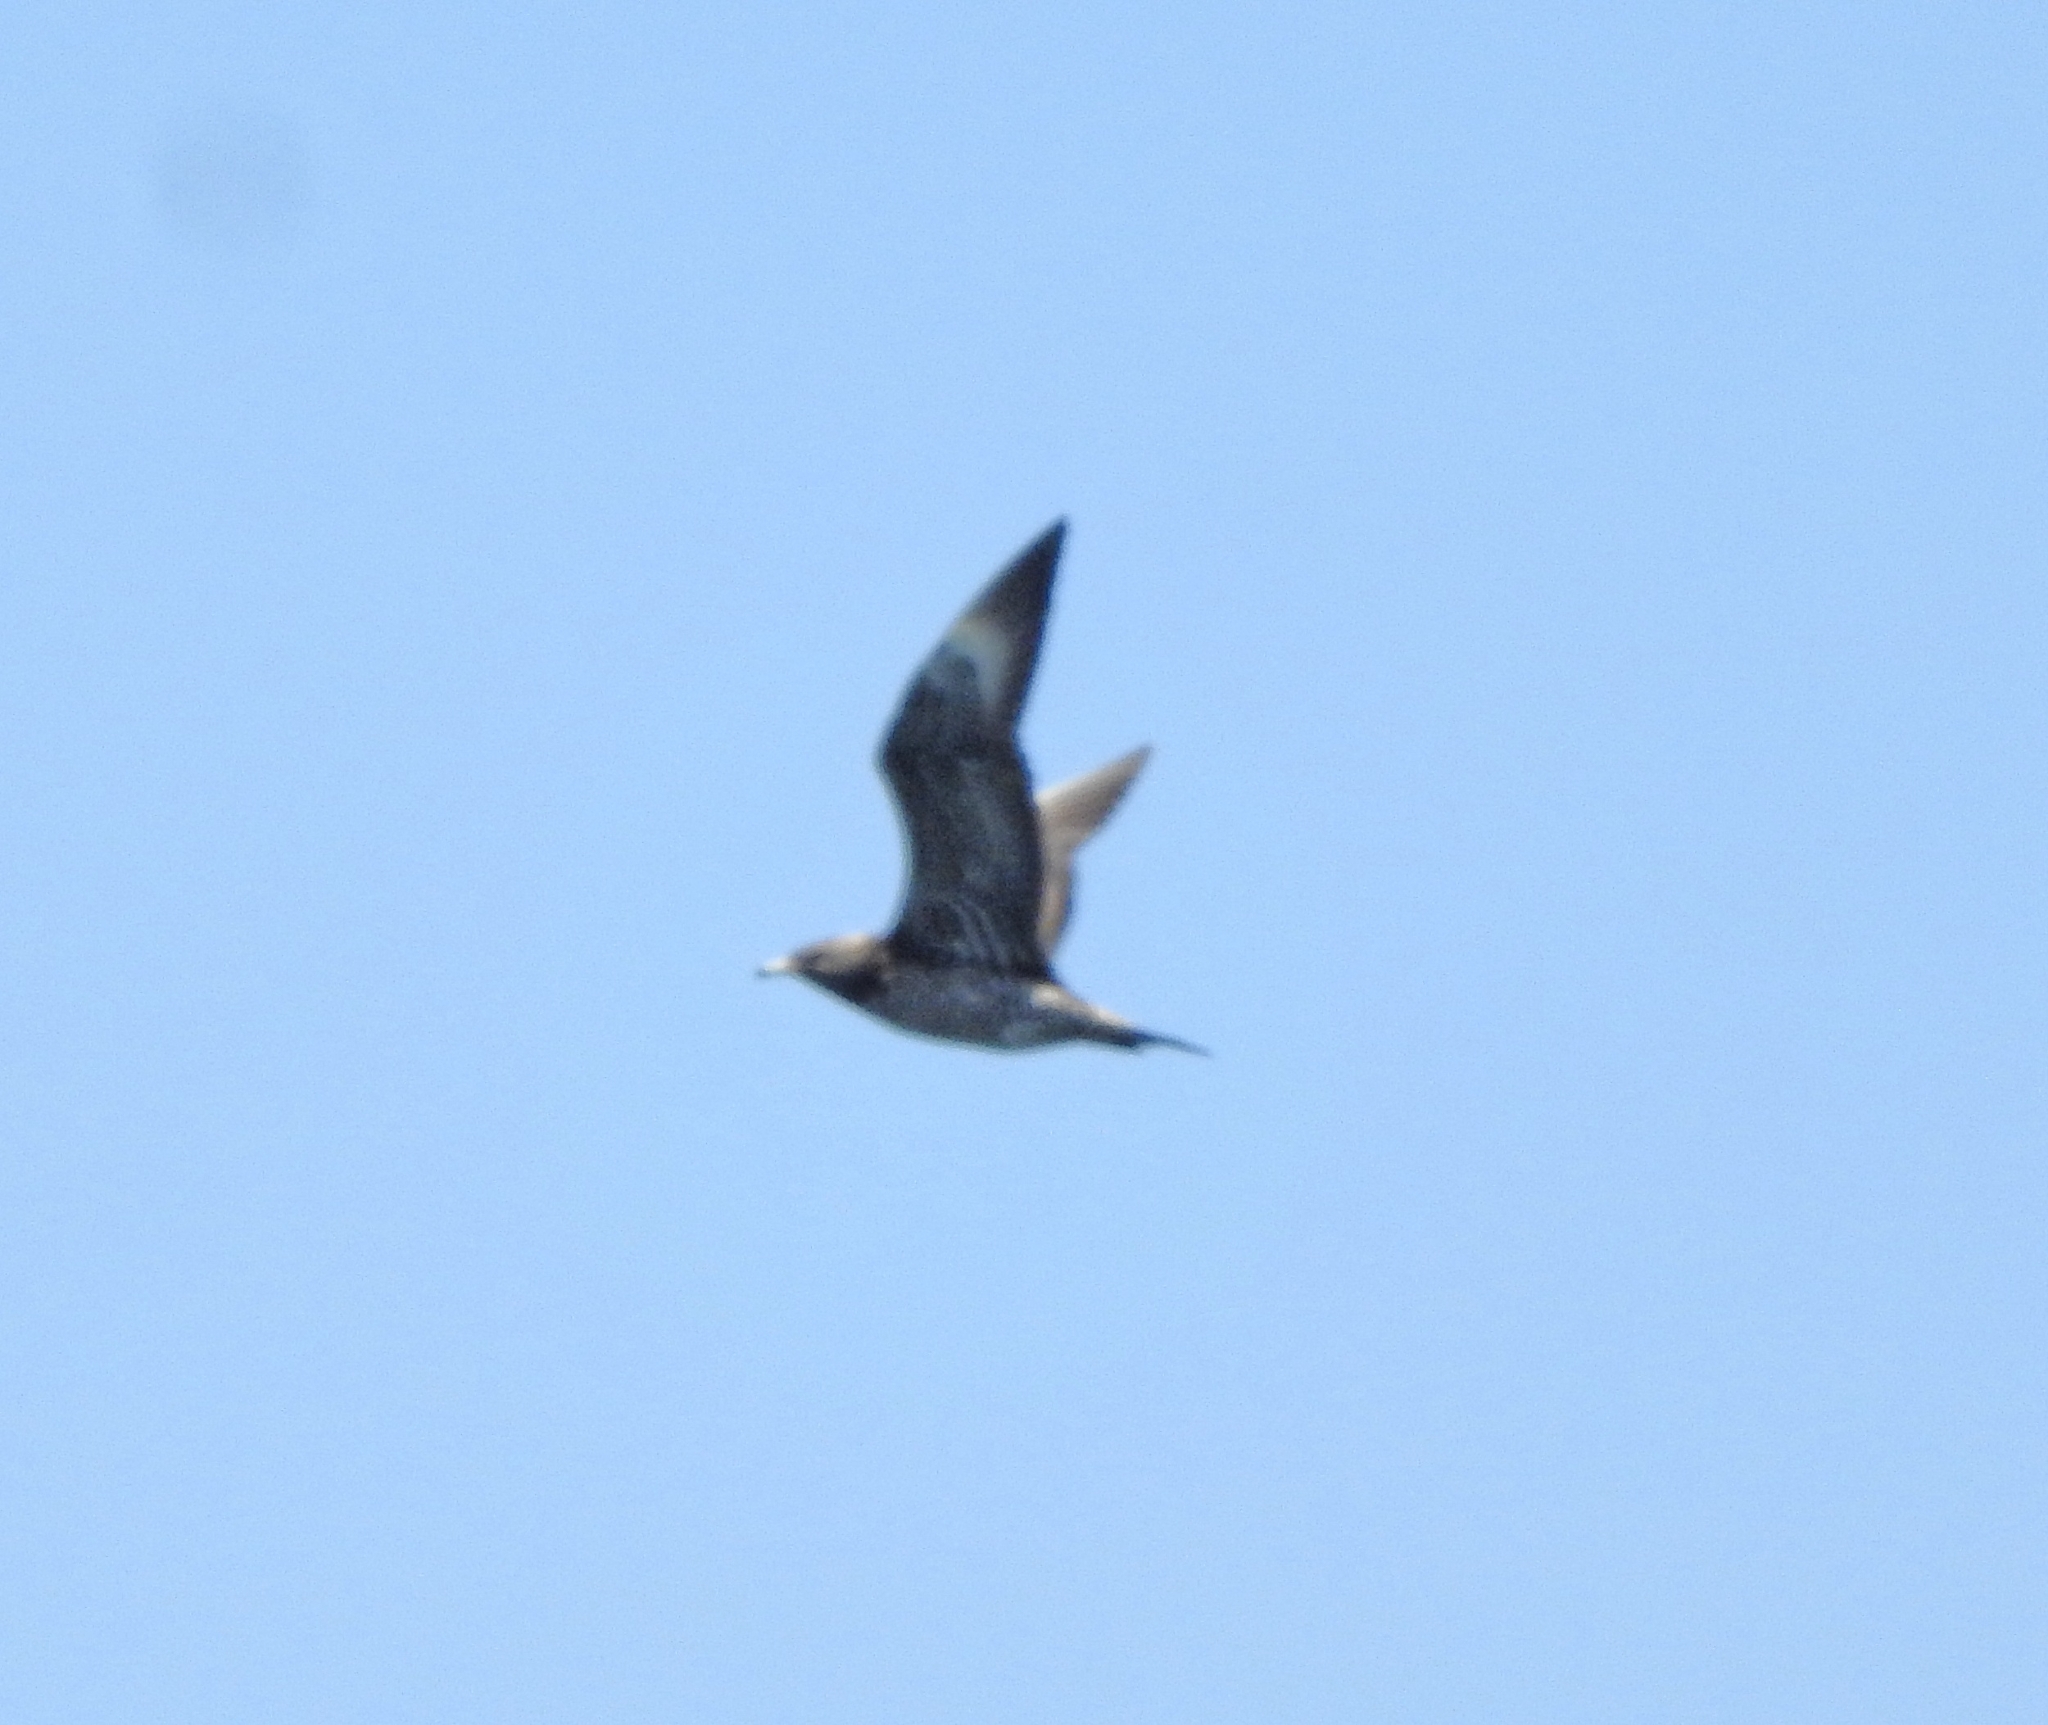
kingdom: Animalia
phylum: Chordata
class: Aves
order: Charadriiformes
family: Stercorariidae
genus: Stercorarius
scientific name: Stercorarius parasiticus
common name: Parasitic jaeger
